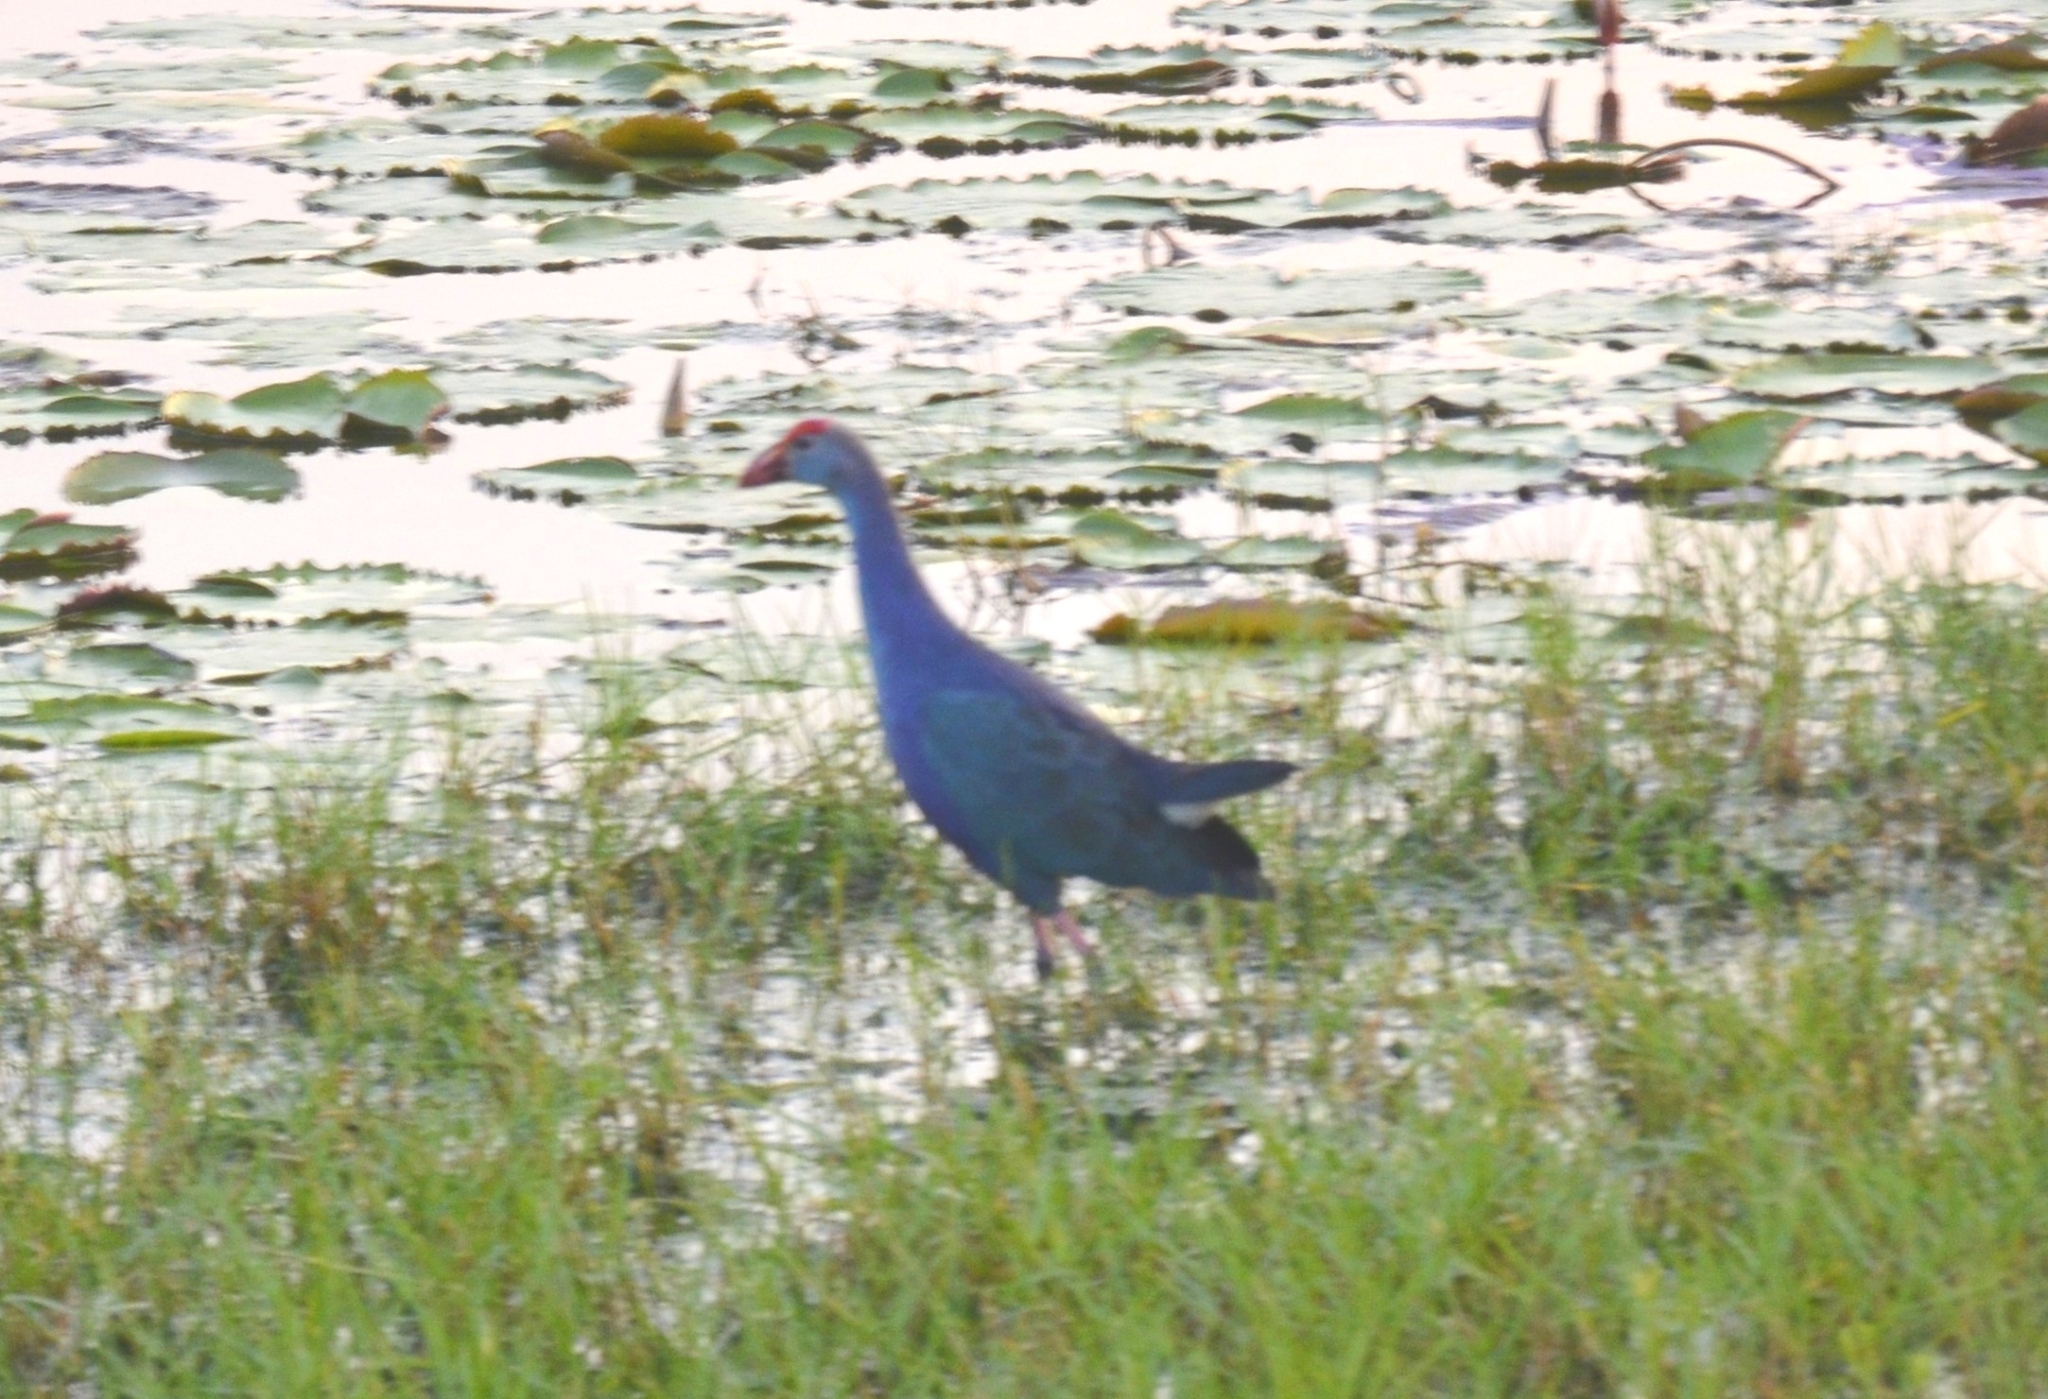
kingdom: Animalia
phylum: Chordata
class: Aves
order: Gruiformes
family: Rallidae
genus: Porphyrio
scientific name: Porphyrio porphyrio
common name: Purple swamphen
